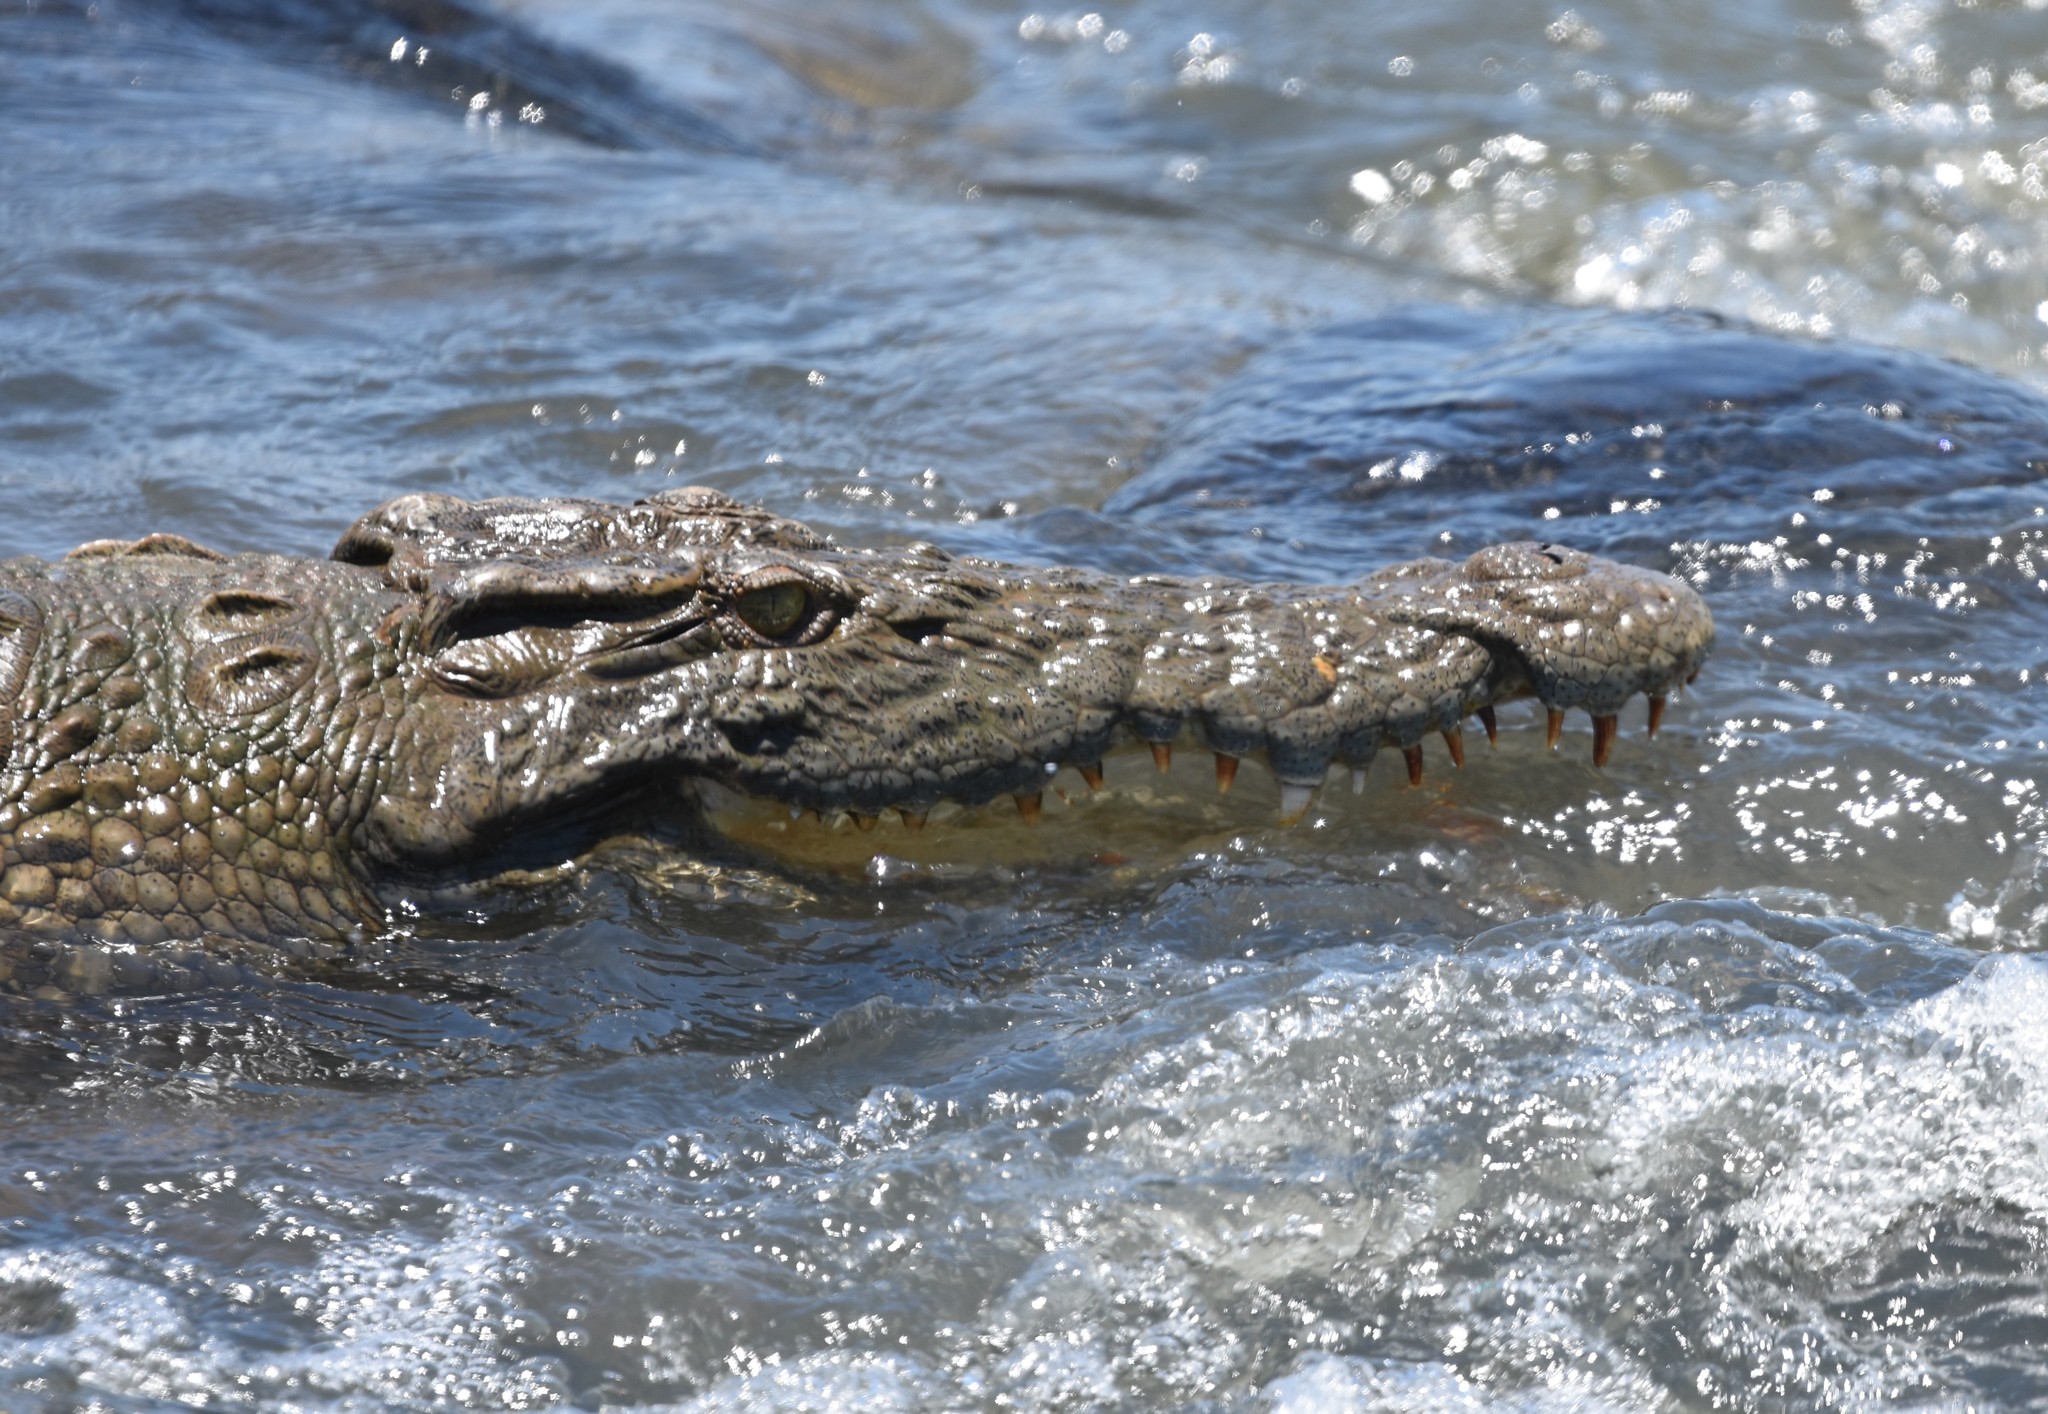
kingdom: Animalia
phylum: Chordata
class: Crocodylia
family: Crocodylidae
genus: Crocodylus
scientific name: Crocodylus niloticus
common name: Nile crocodile
